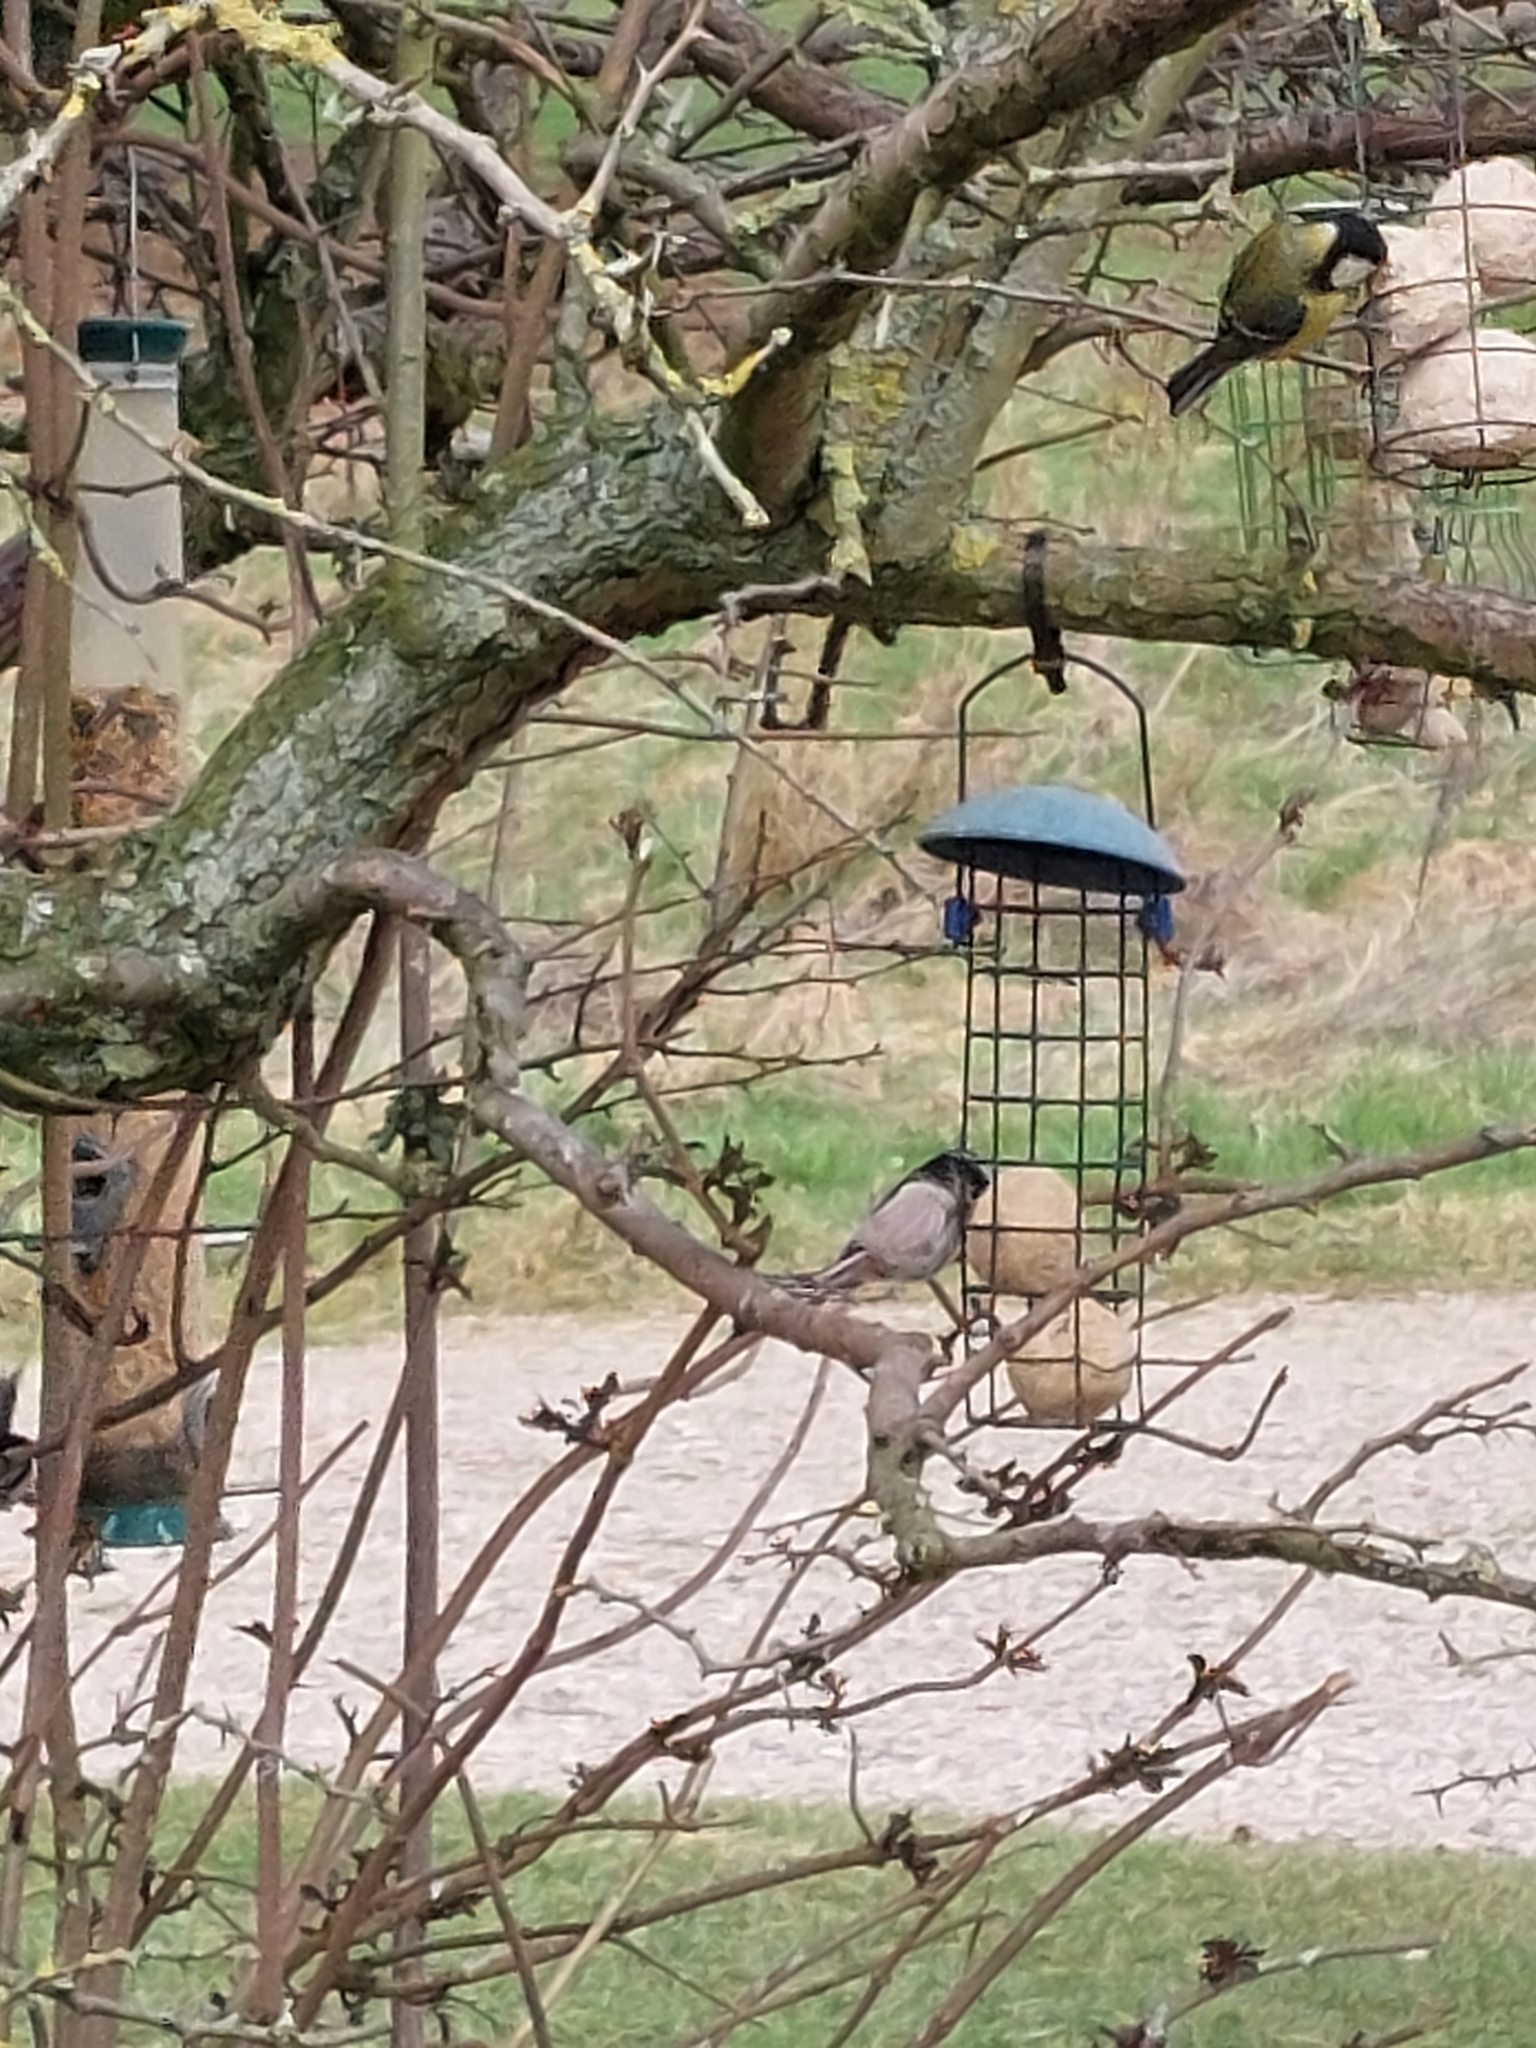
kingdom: Animalia
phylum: Chordata
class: Aves
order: Passeriformes
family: Aegithalidae
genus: Aegithalos
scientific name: Aegithalos caudatus
